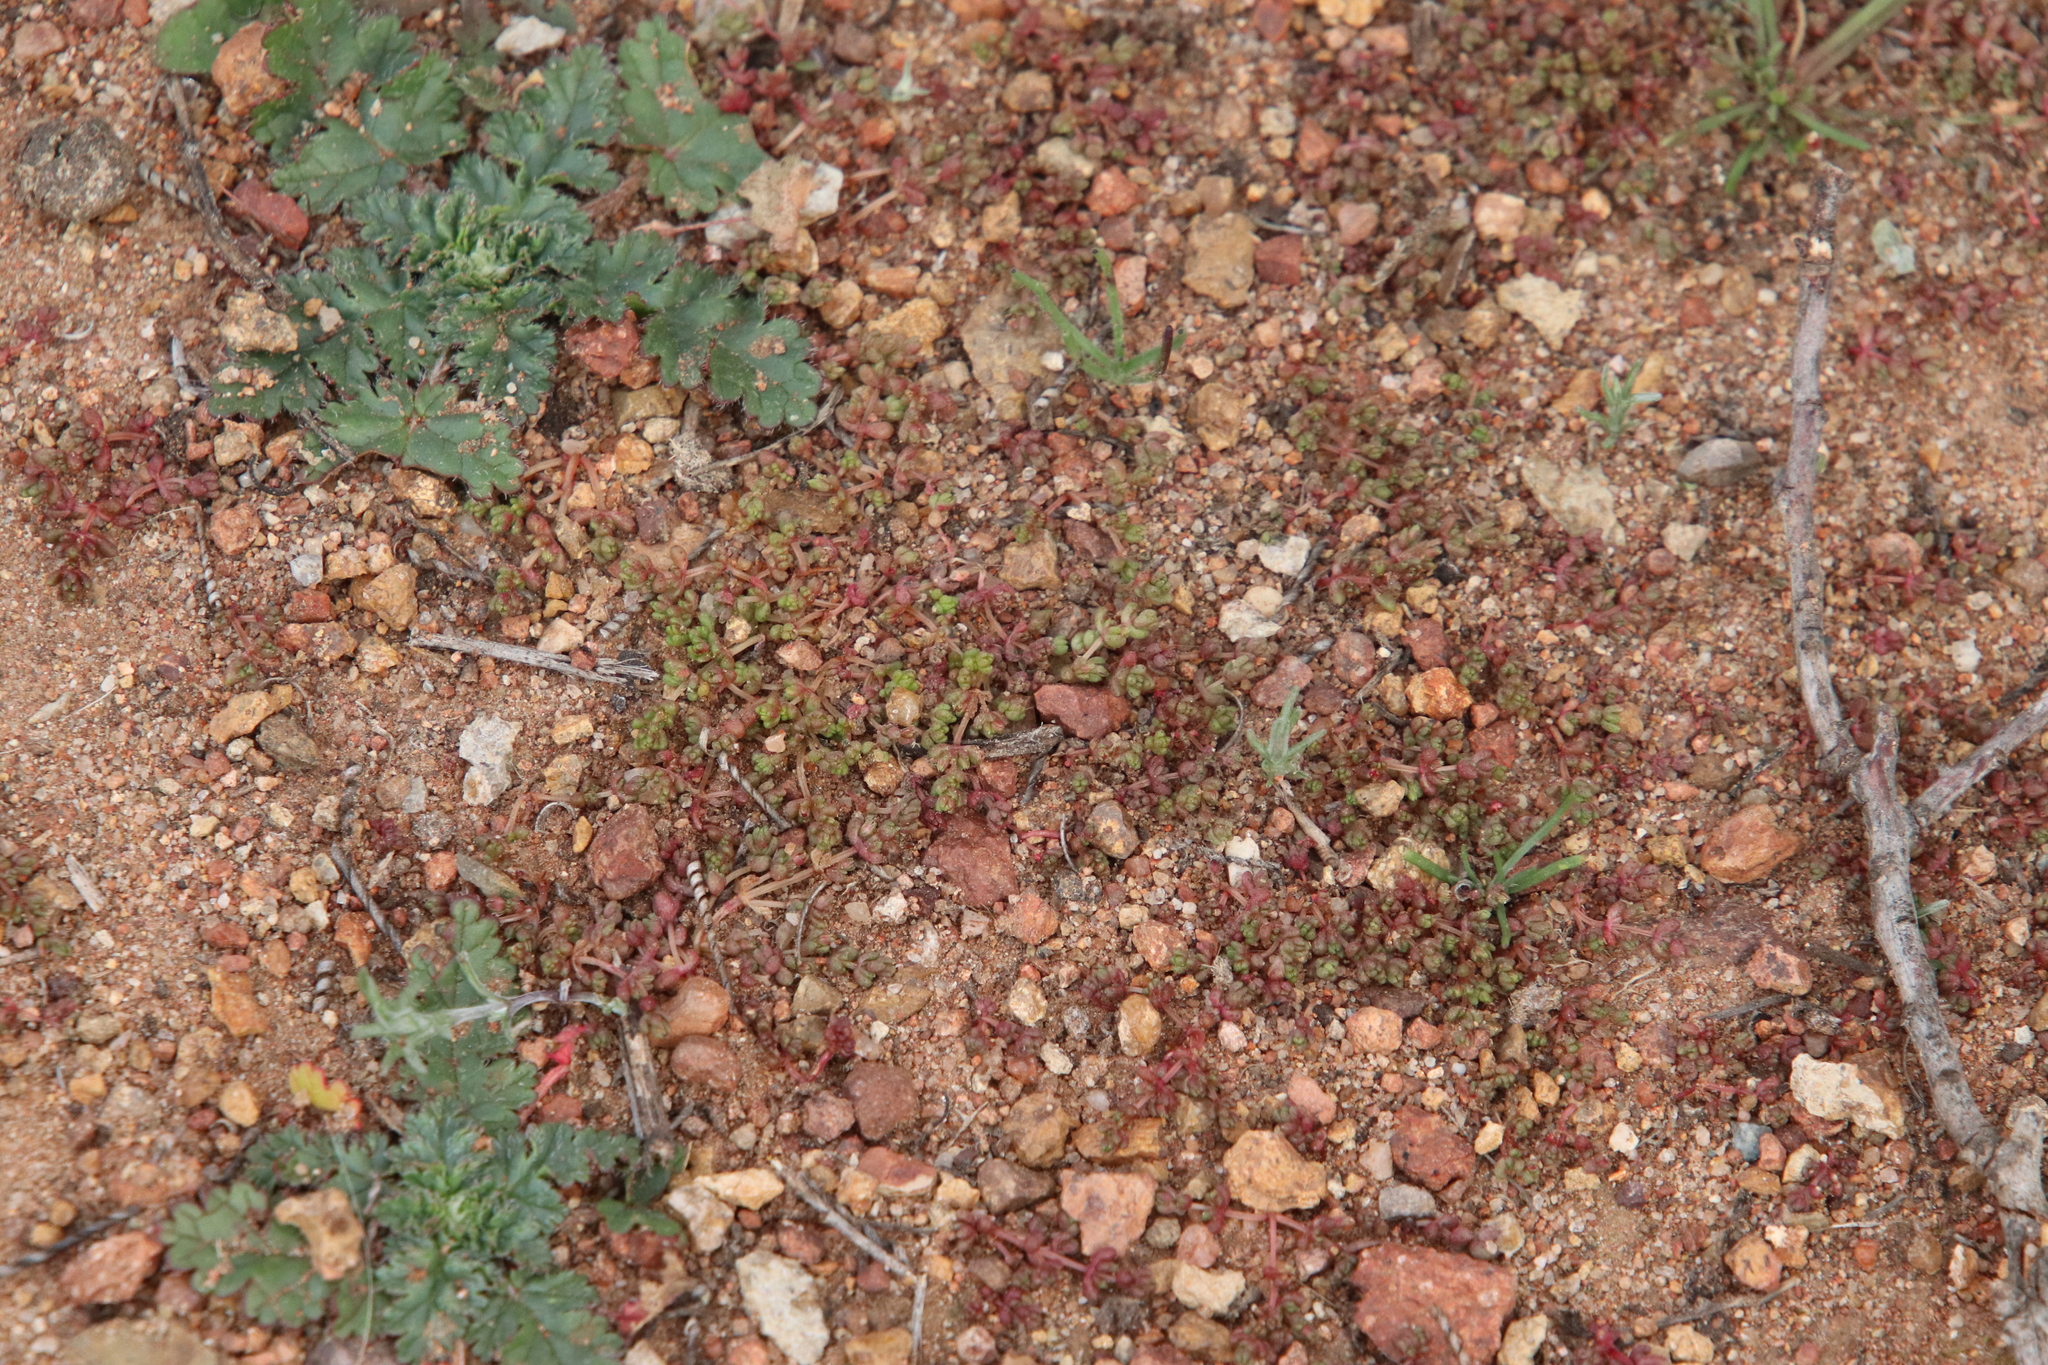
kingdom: Plantae
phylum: Tracheophyta
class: Magnoliopsida
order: Saxifragales
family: Crassulaceae
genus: Crassula
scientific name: Crassula connata
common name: Erect pygmyweed
